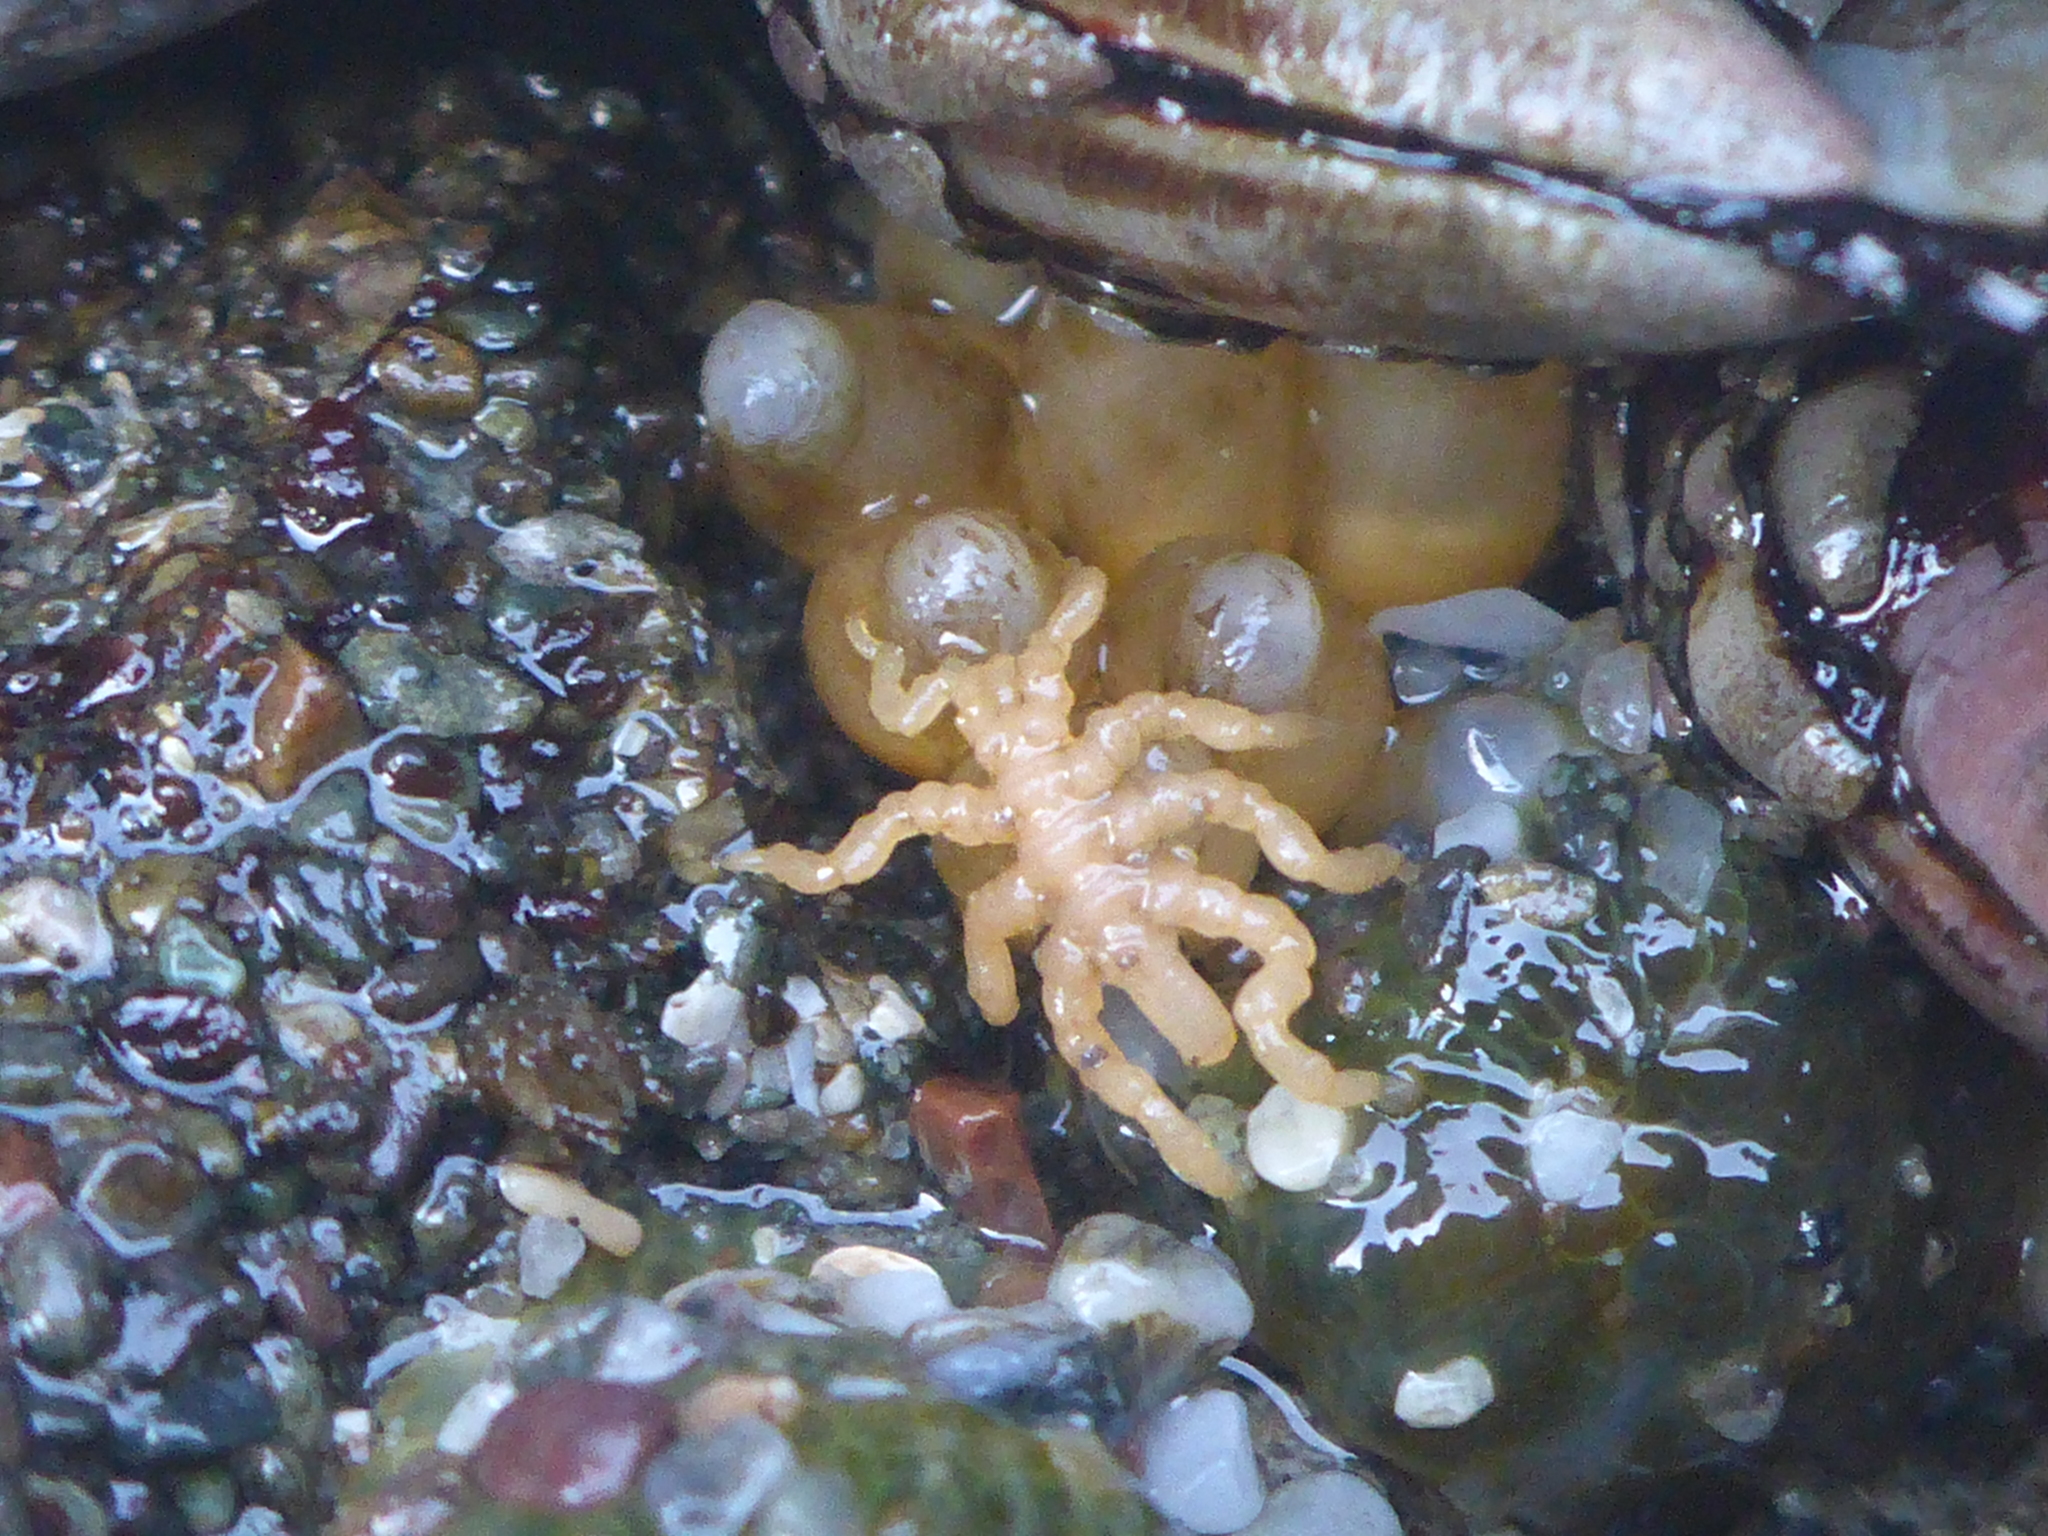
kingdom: Animalia
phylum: Arthropoda
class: Pycnogonida
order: Pantopoda
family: Pycnogonidae
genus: Pycnogonum
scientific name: Pycnogonum stearnsi
